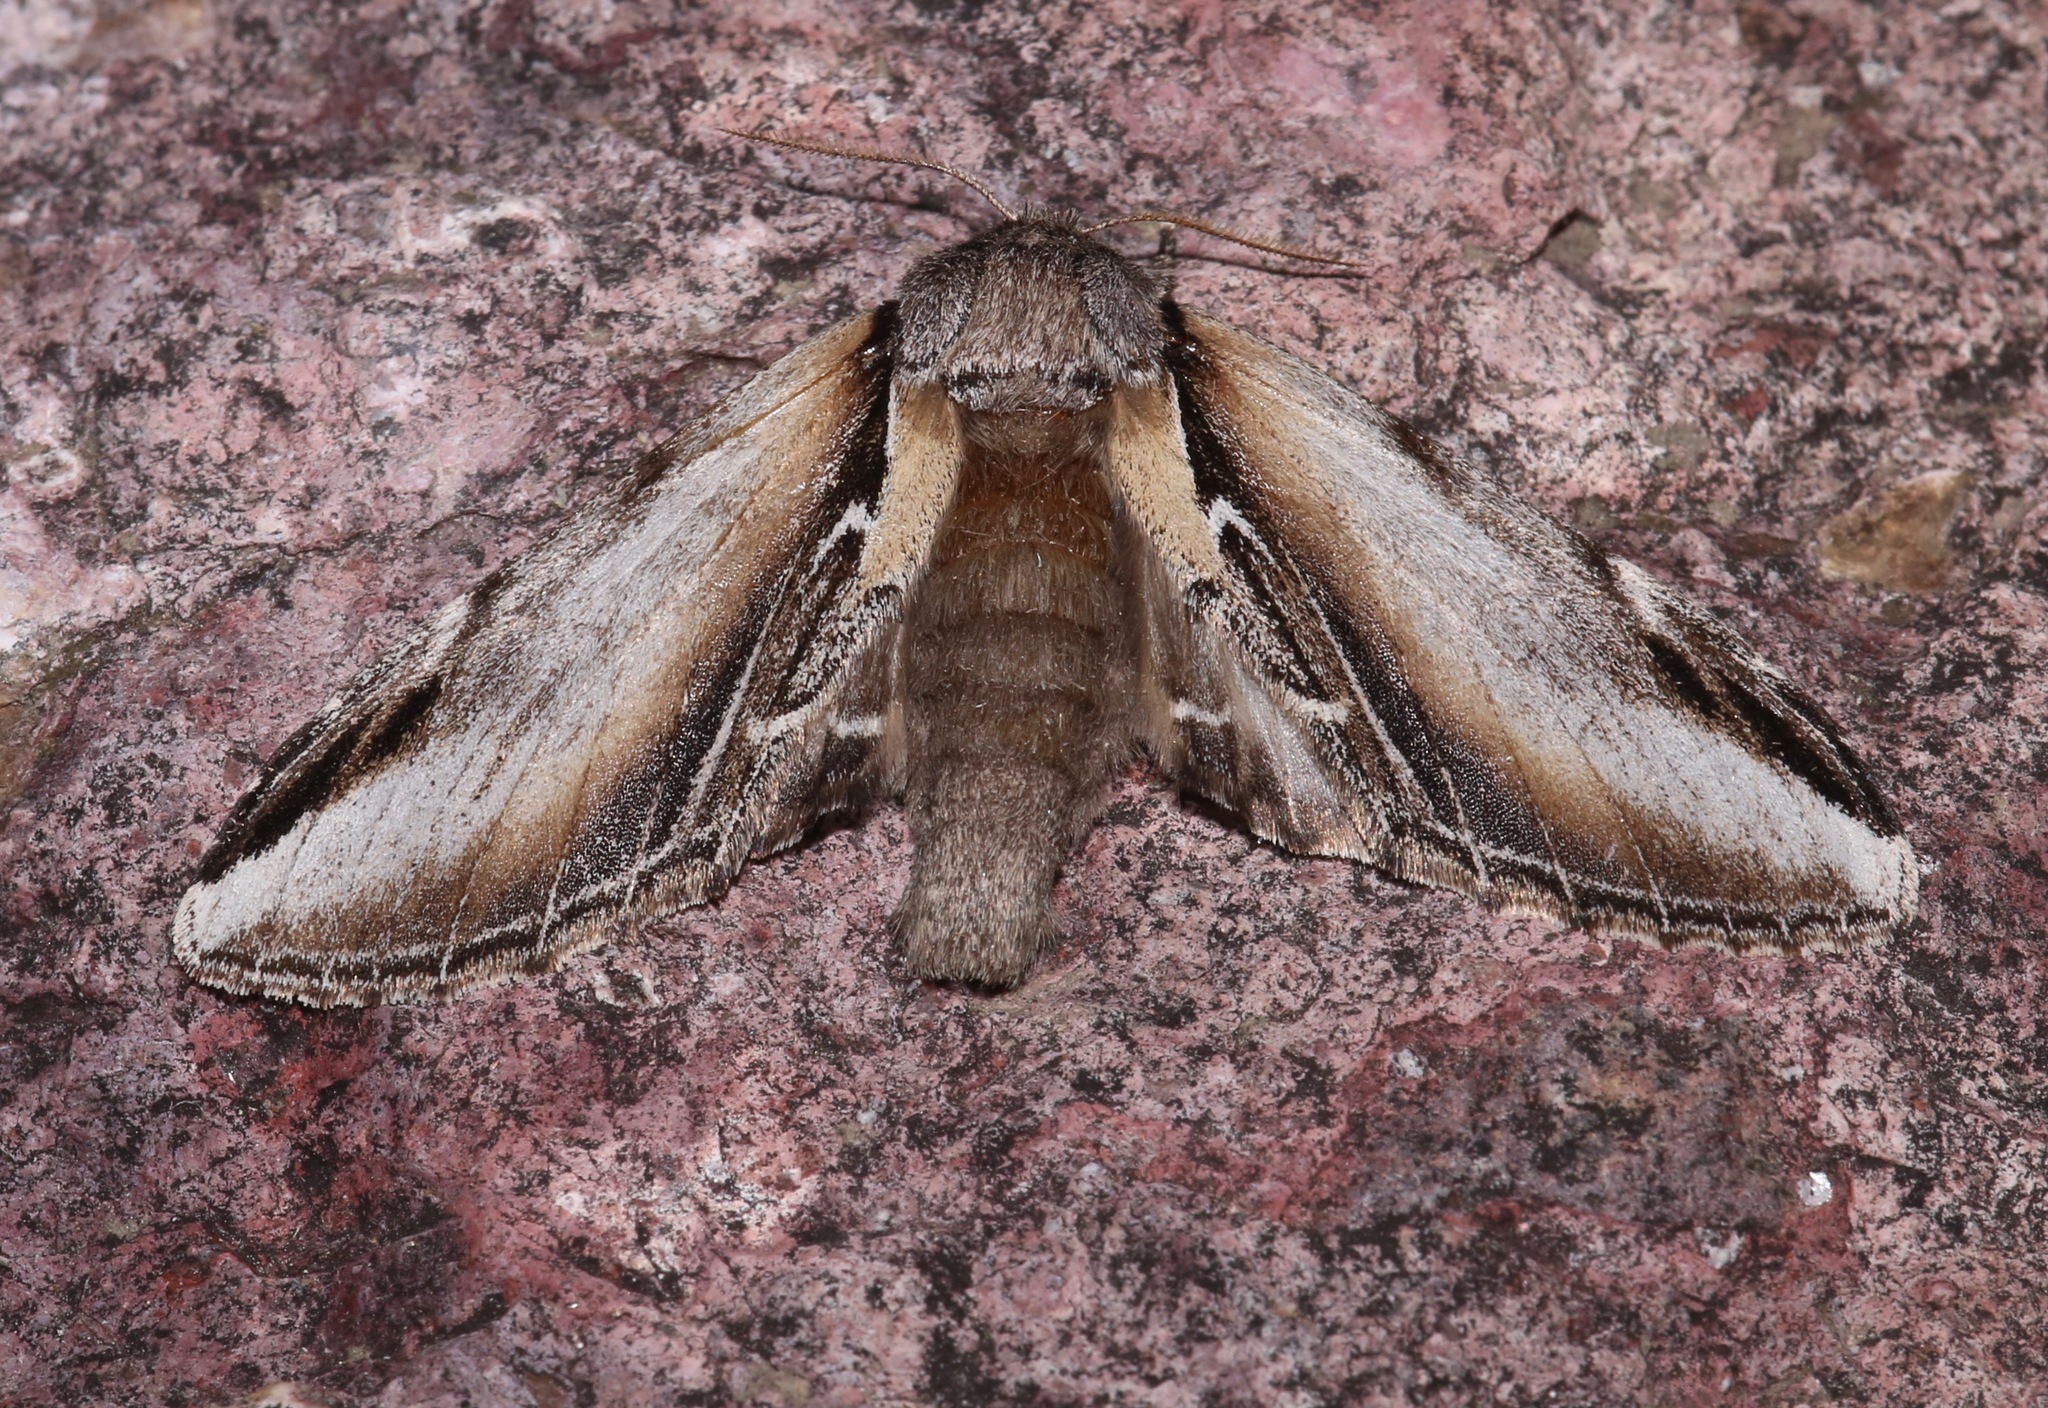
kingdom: Animalia
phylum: Arthropoda
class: Insecta
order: Lepidoptera
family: Notodontidae
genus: Pheosia
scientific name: Pheosia rimosa
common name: Black-rimmed prominent
